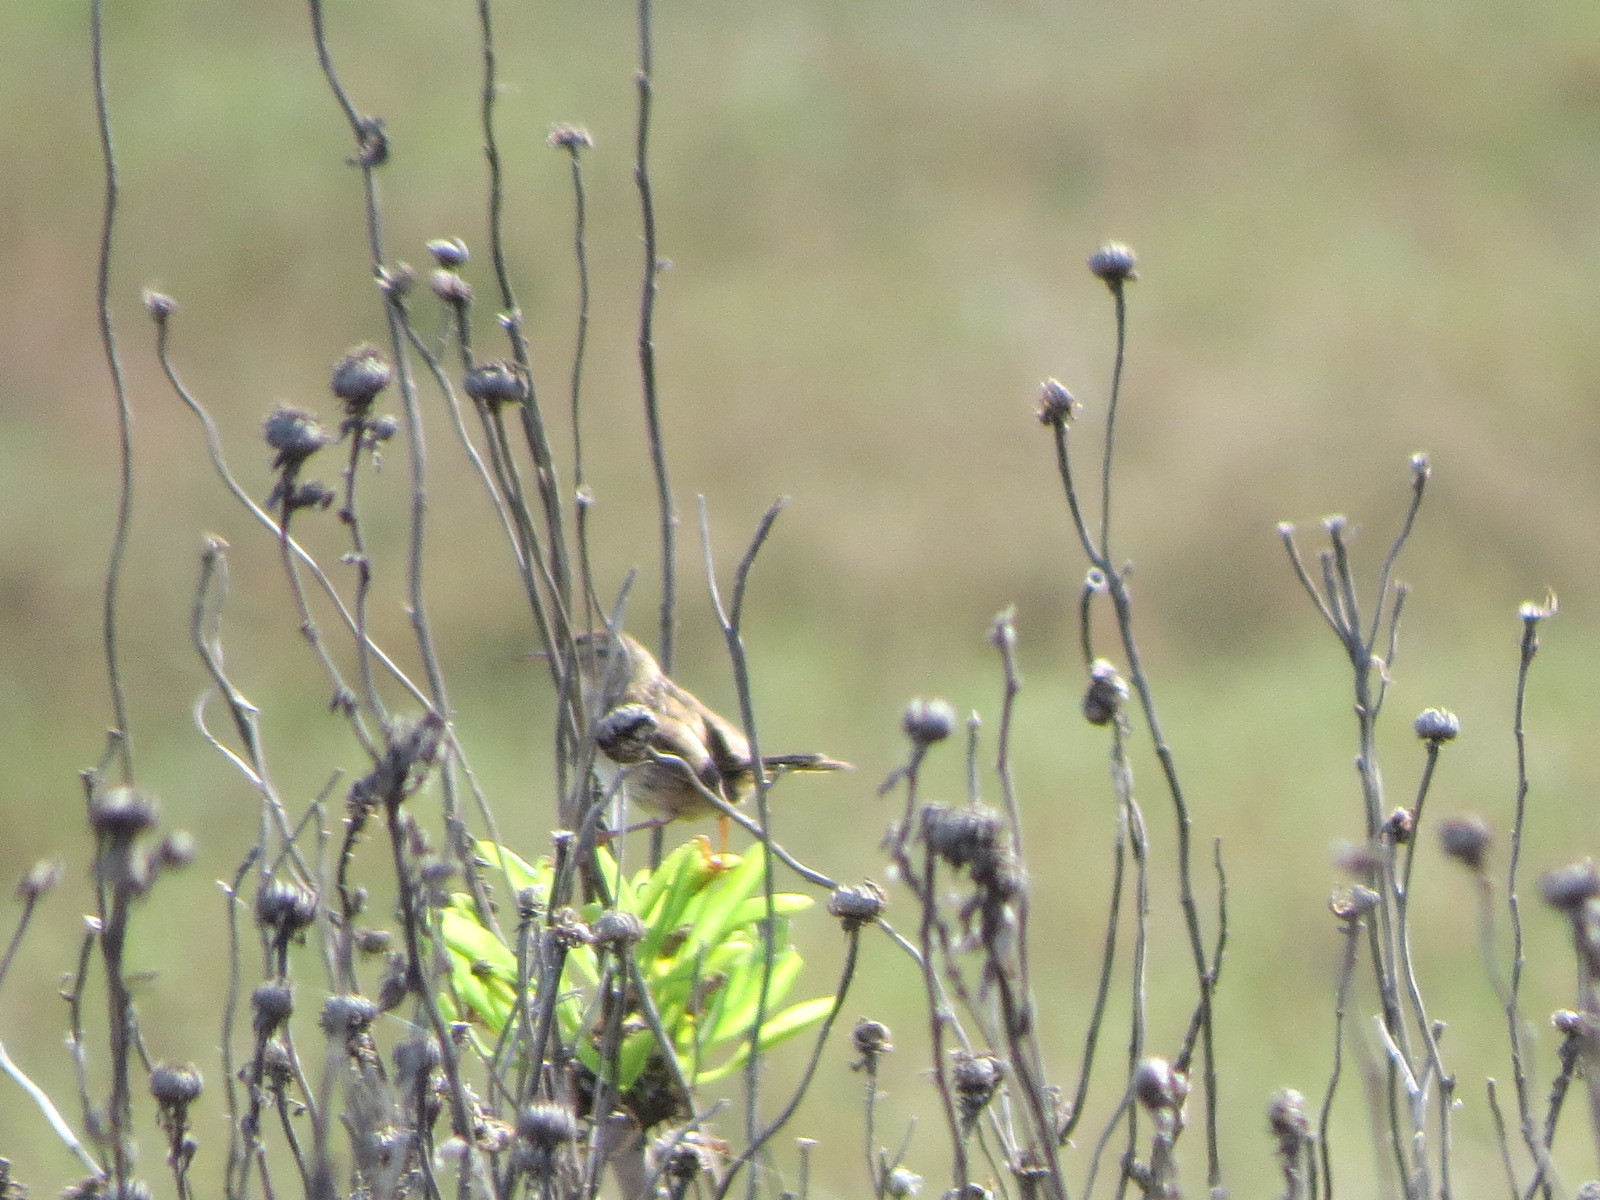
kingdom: Animalia
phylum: Chordata
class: Aves
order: Passeriformes
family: Troglodytidae
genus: Cistothorus
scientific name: Cistothorus palustris
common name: Marsh wren
